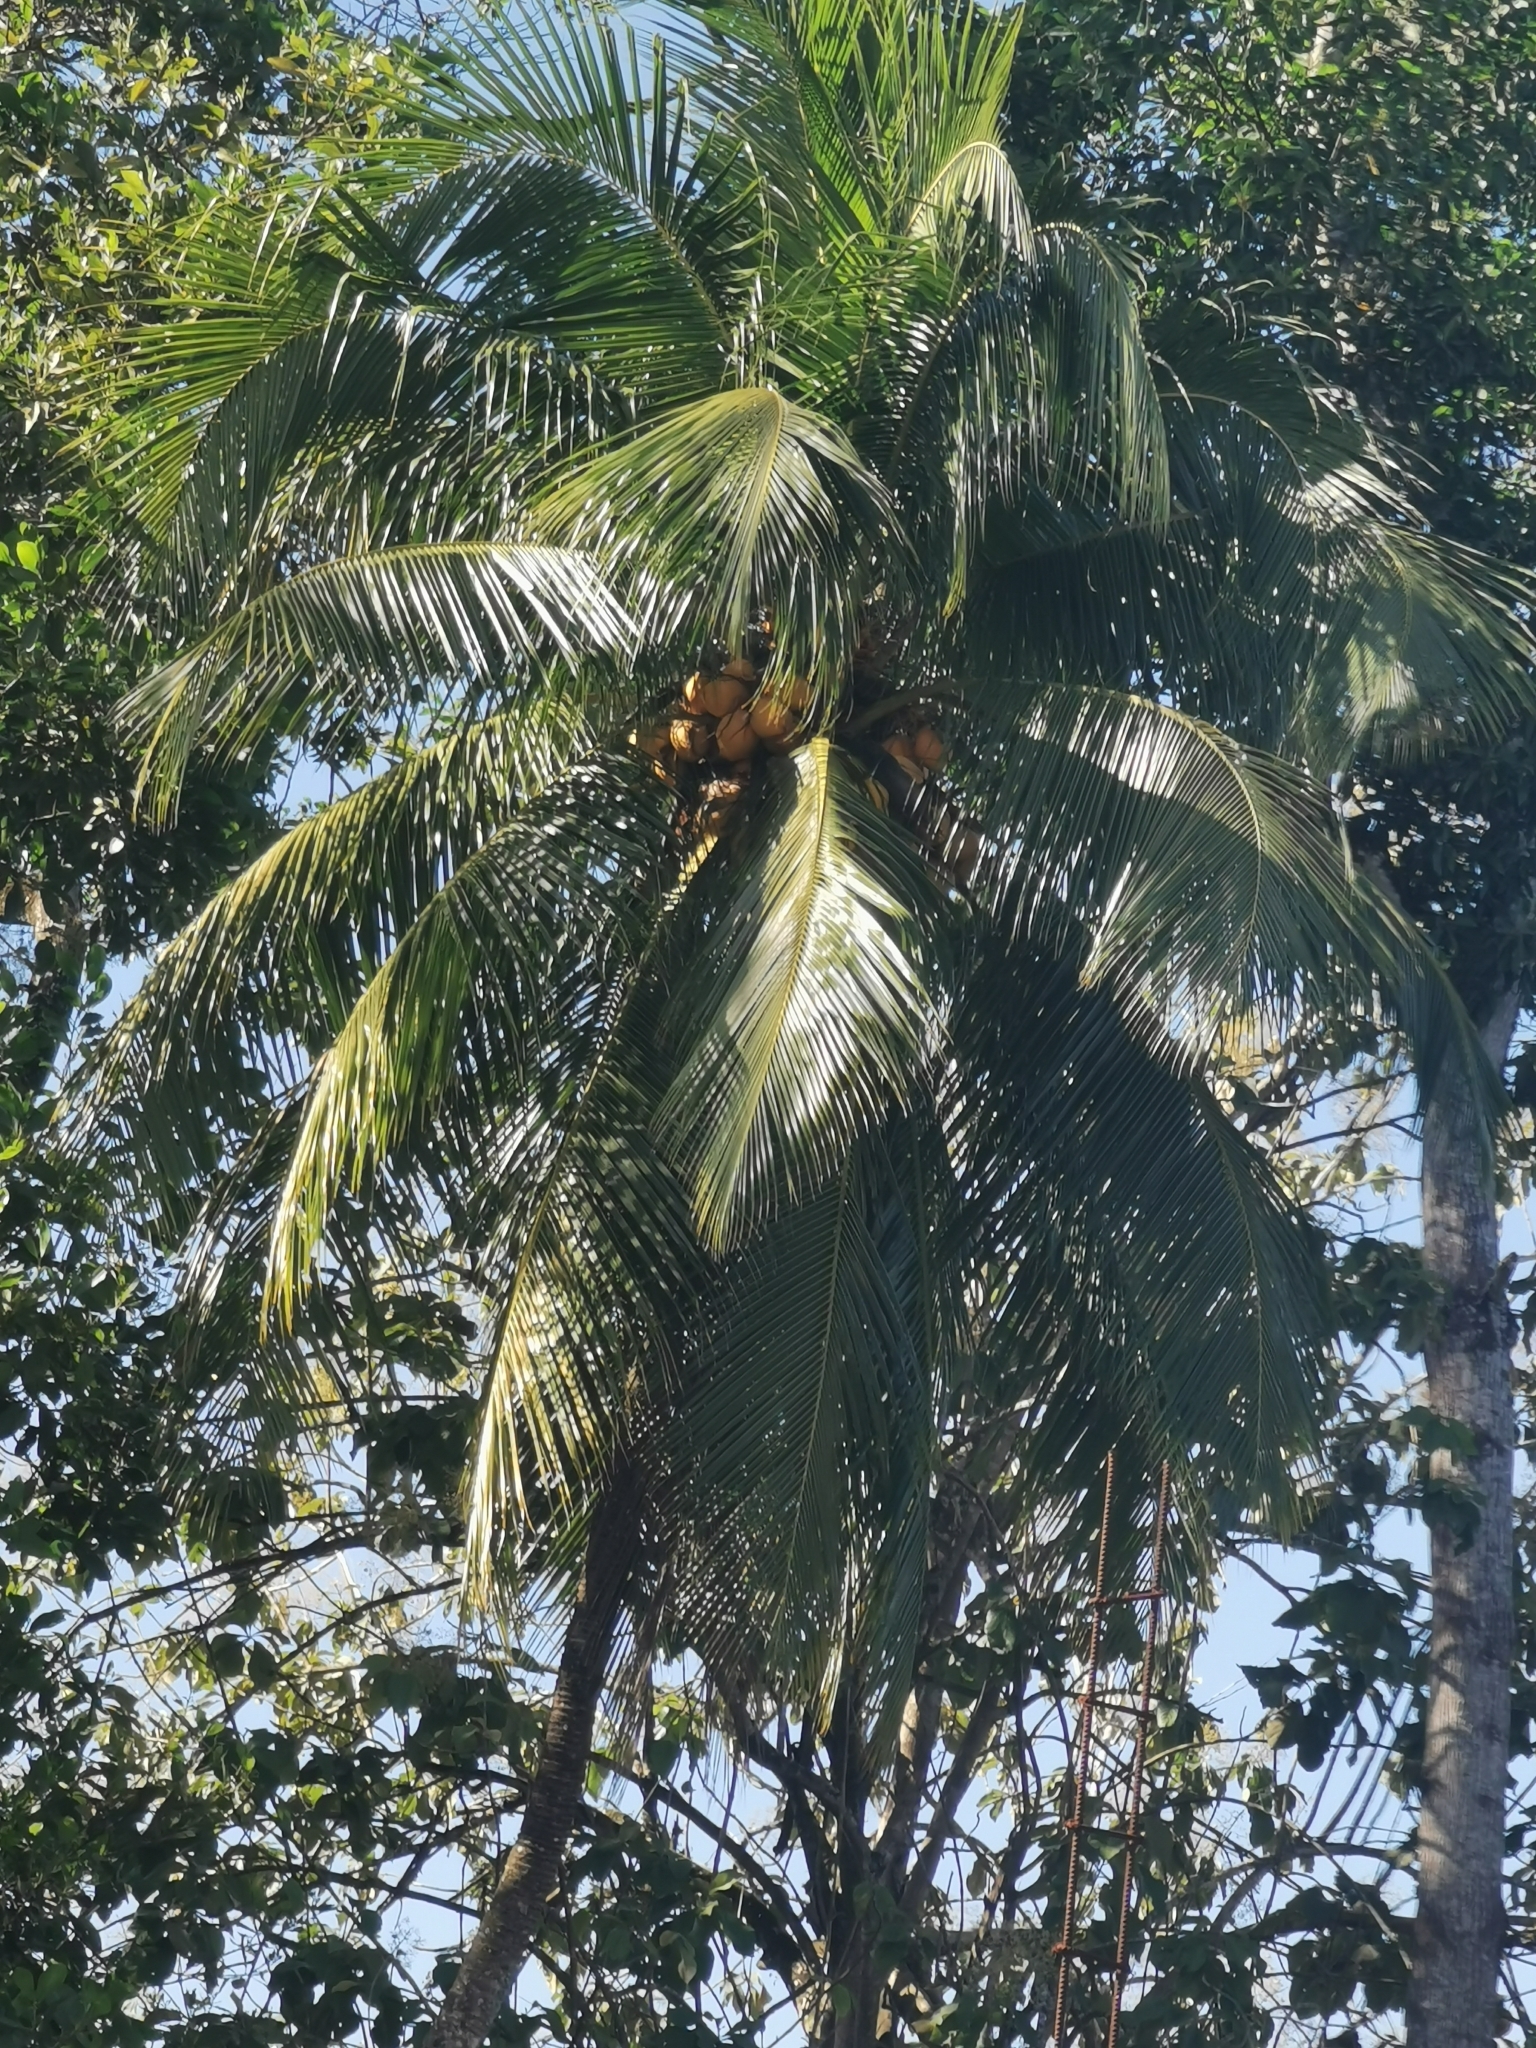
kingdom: Plantae
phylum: Tracheophyta
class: Liliopsida
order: Arecales
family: Arecaceae
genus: Cocos
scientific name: Cocos nucifera
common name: Coconut palm
